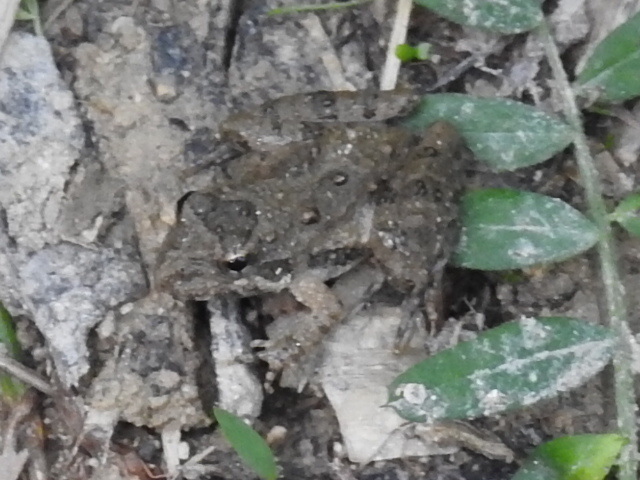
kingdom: Animalia
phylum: Chordata
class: Amphibia
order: Anura
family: Hylidae
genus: Acris
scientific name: Acris blanchardi
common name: Blanchard's cricket frog
